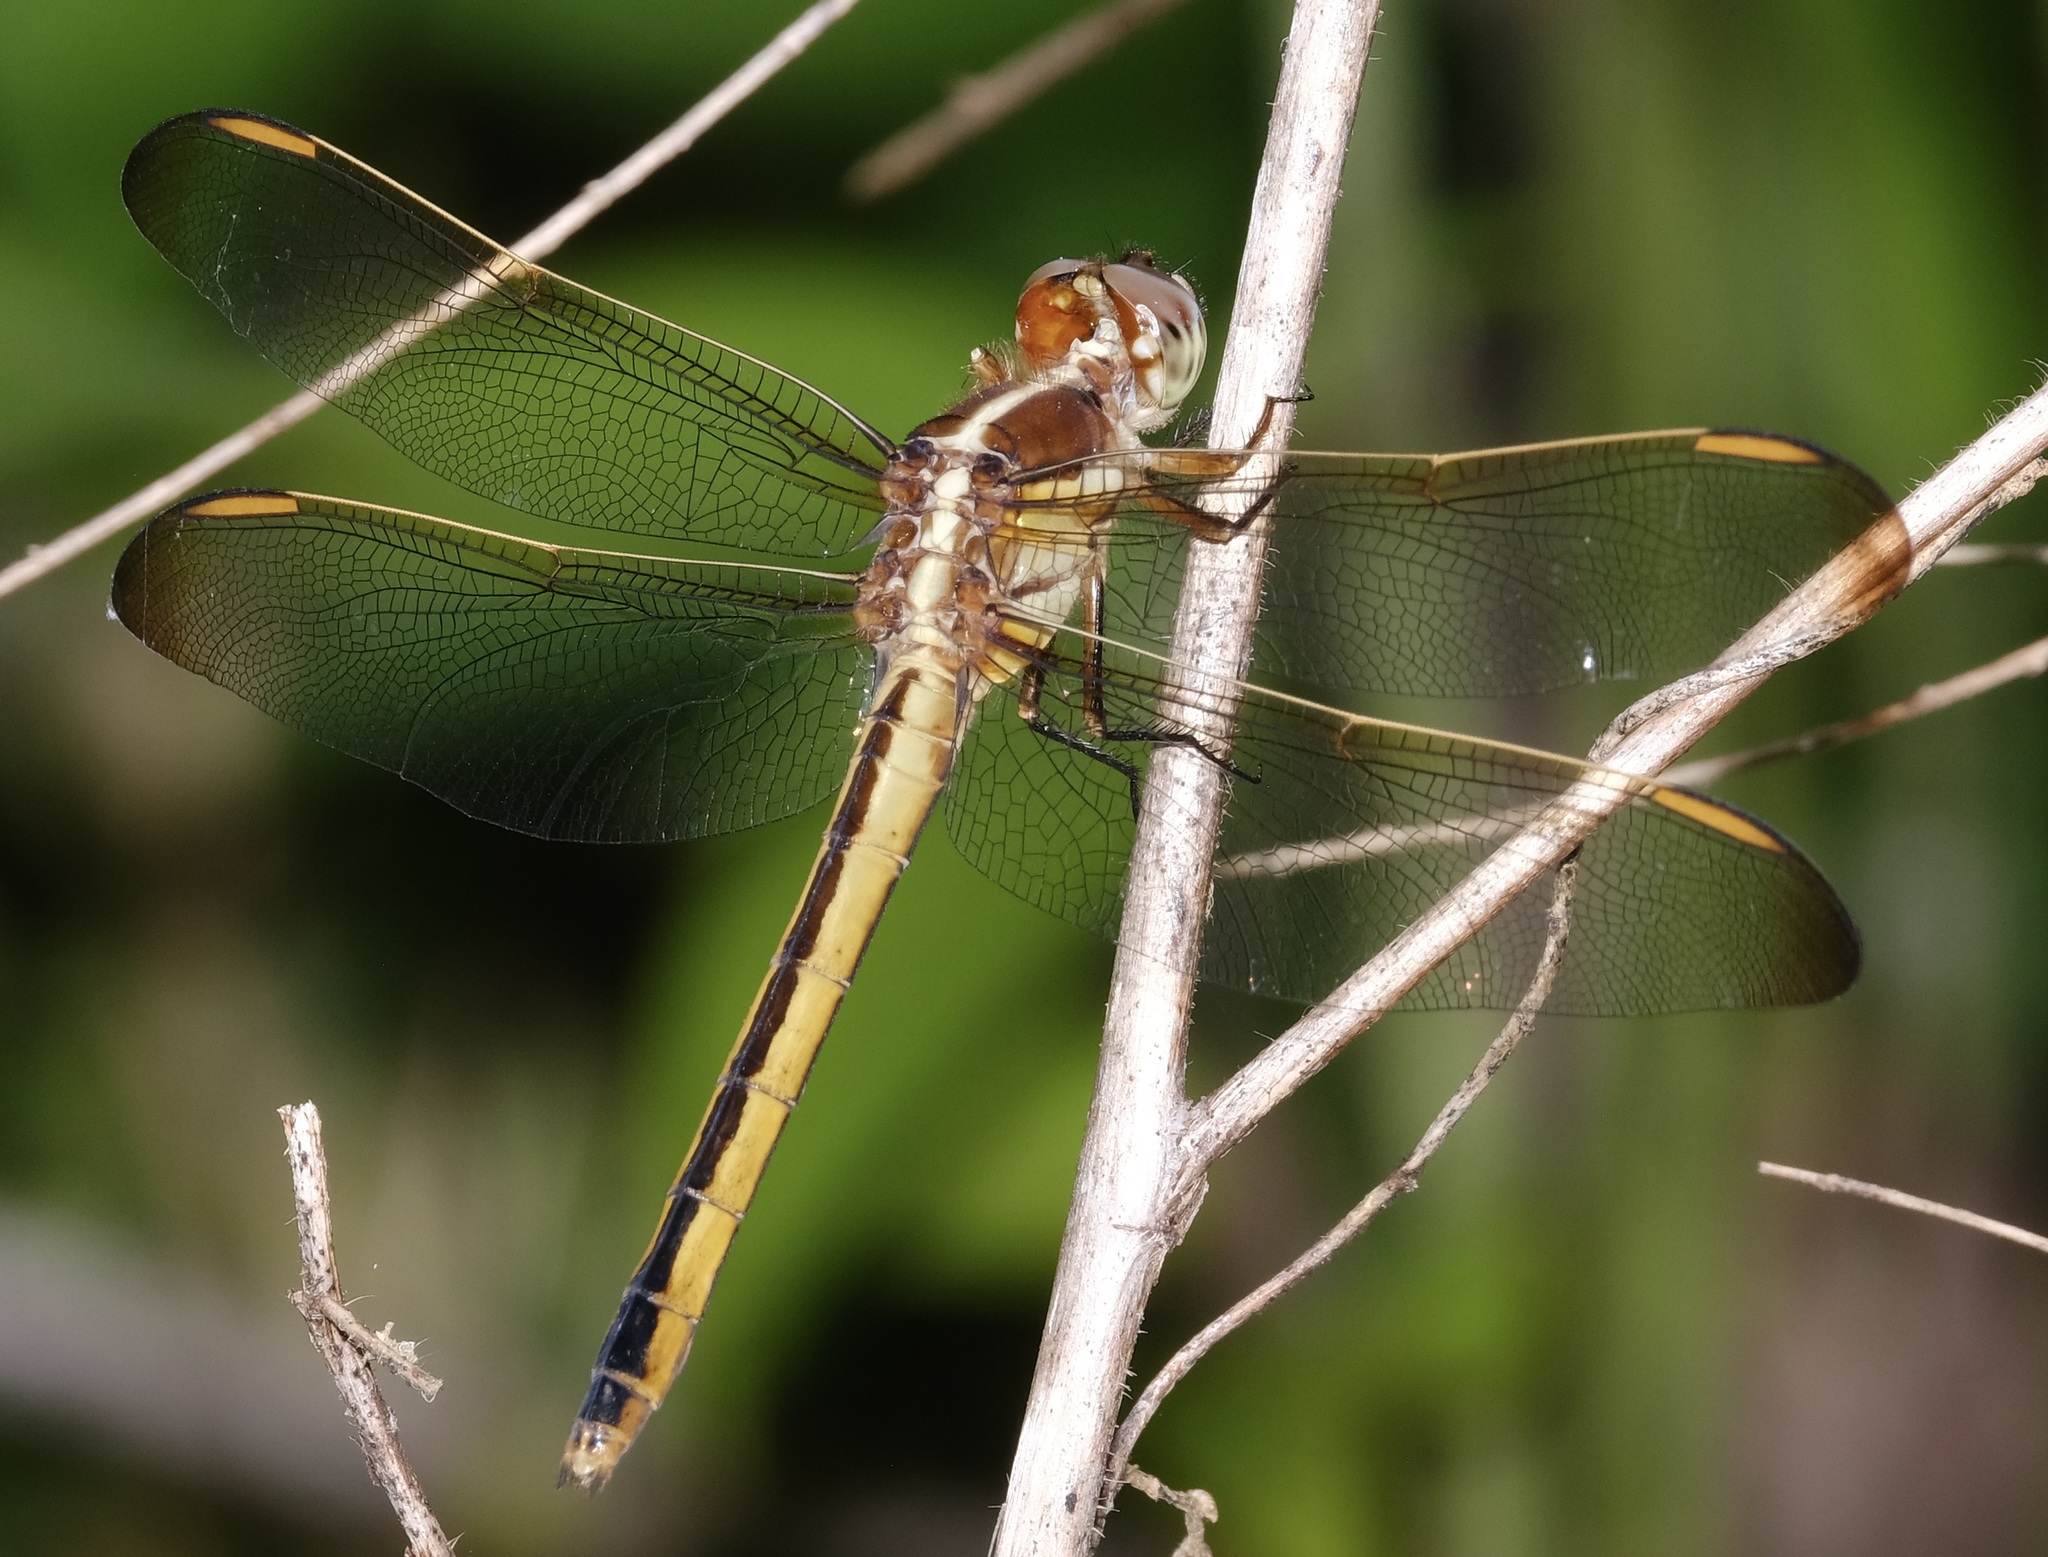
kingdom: Animalia
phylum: Arthropoda
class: Insecta
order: Odonata
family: Libellulidae
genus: Libellula
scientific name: Libellula auripennis
